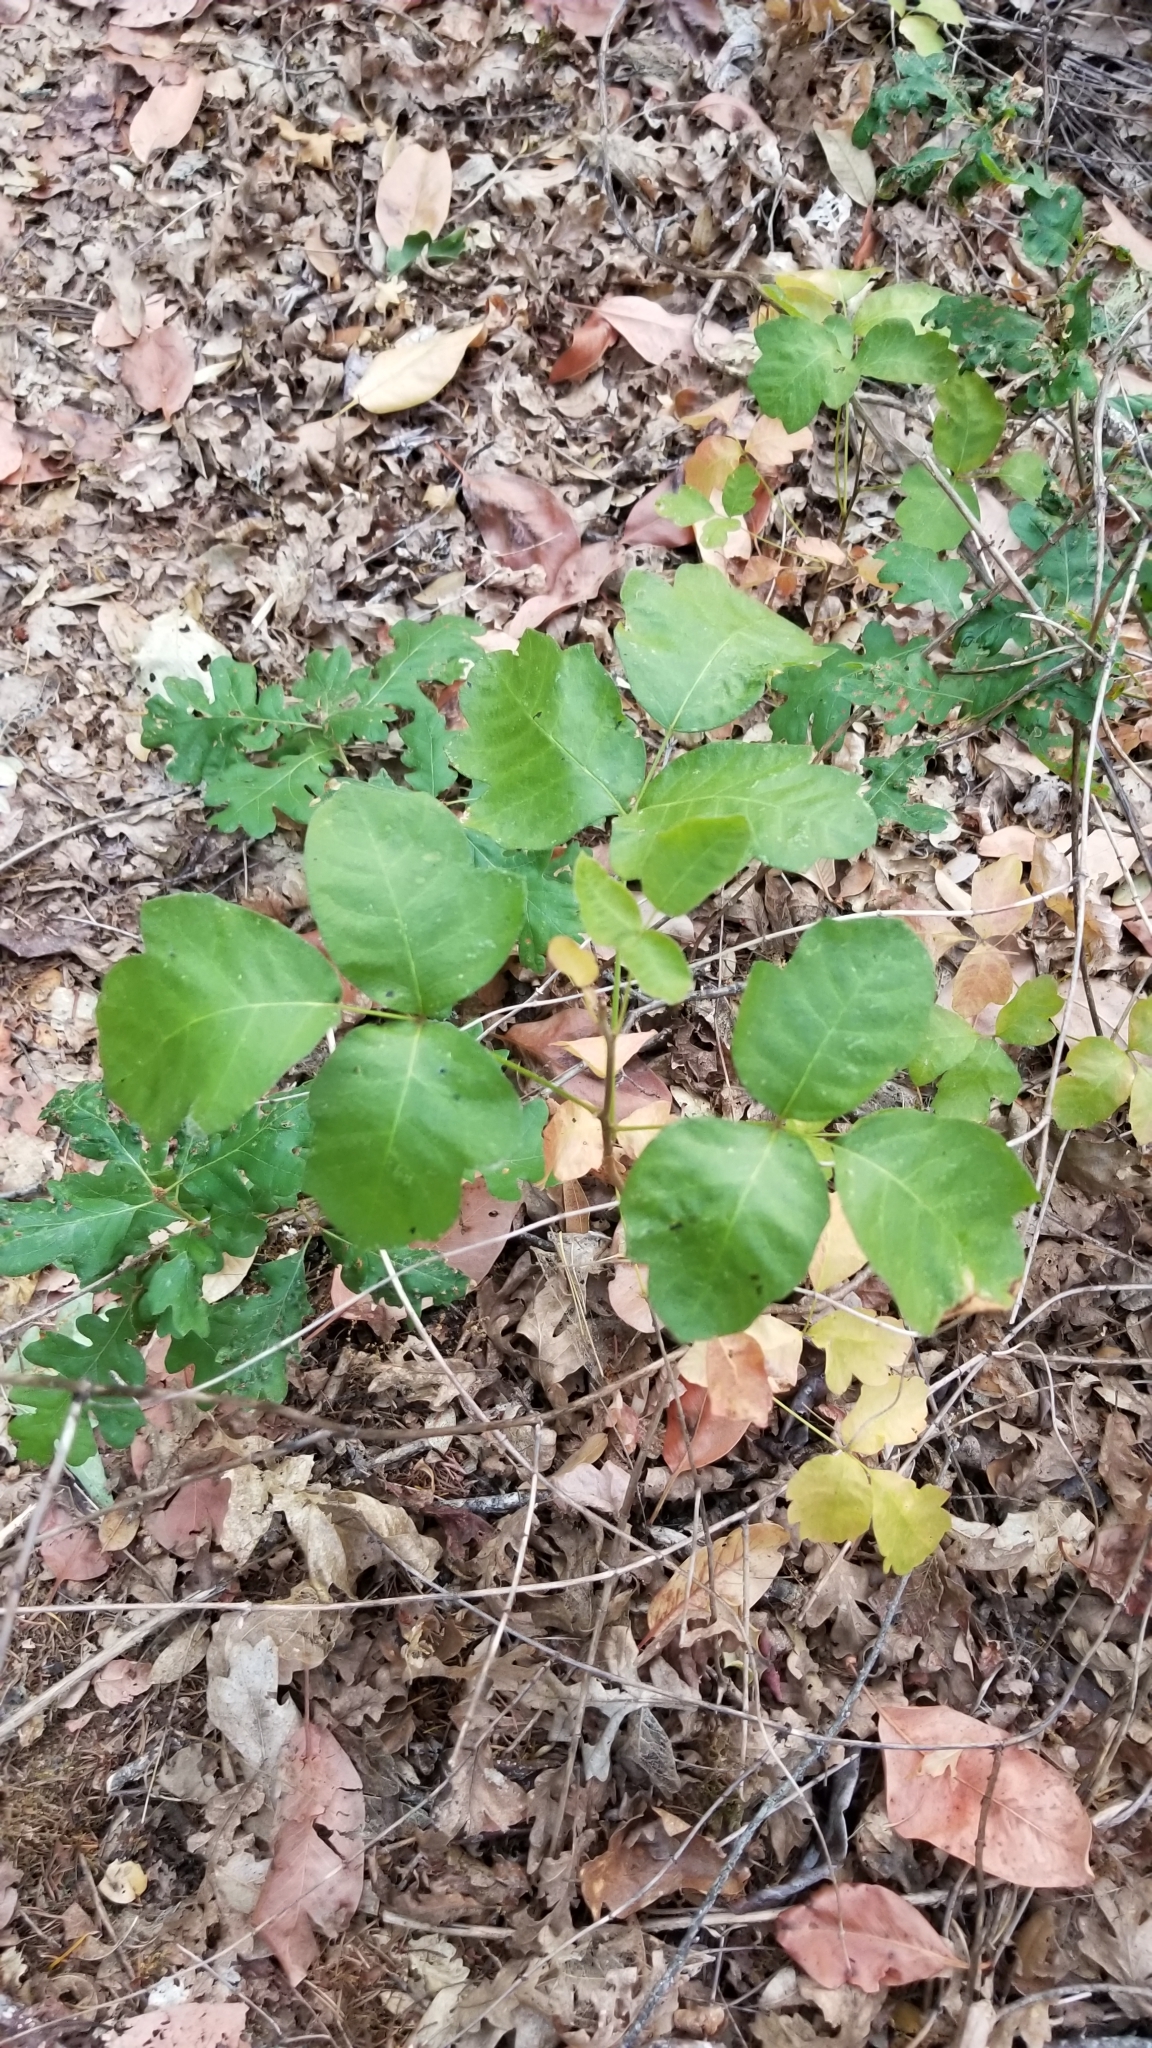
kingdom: Plantae
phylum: Tracheophyta
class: Magnoliopsida
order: Sapindales
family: Anacardiaceae
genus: Toxicodendron
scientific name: Toxicodendron diversilobum
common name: Pacific poison-oak
